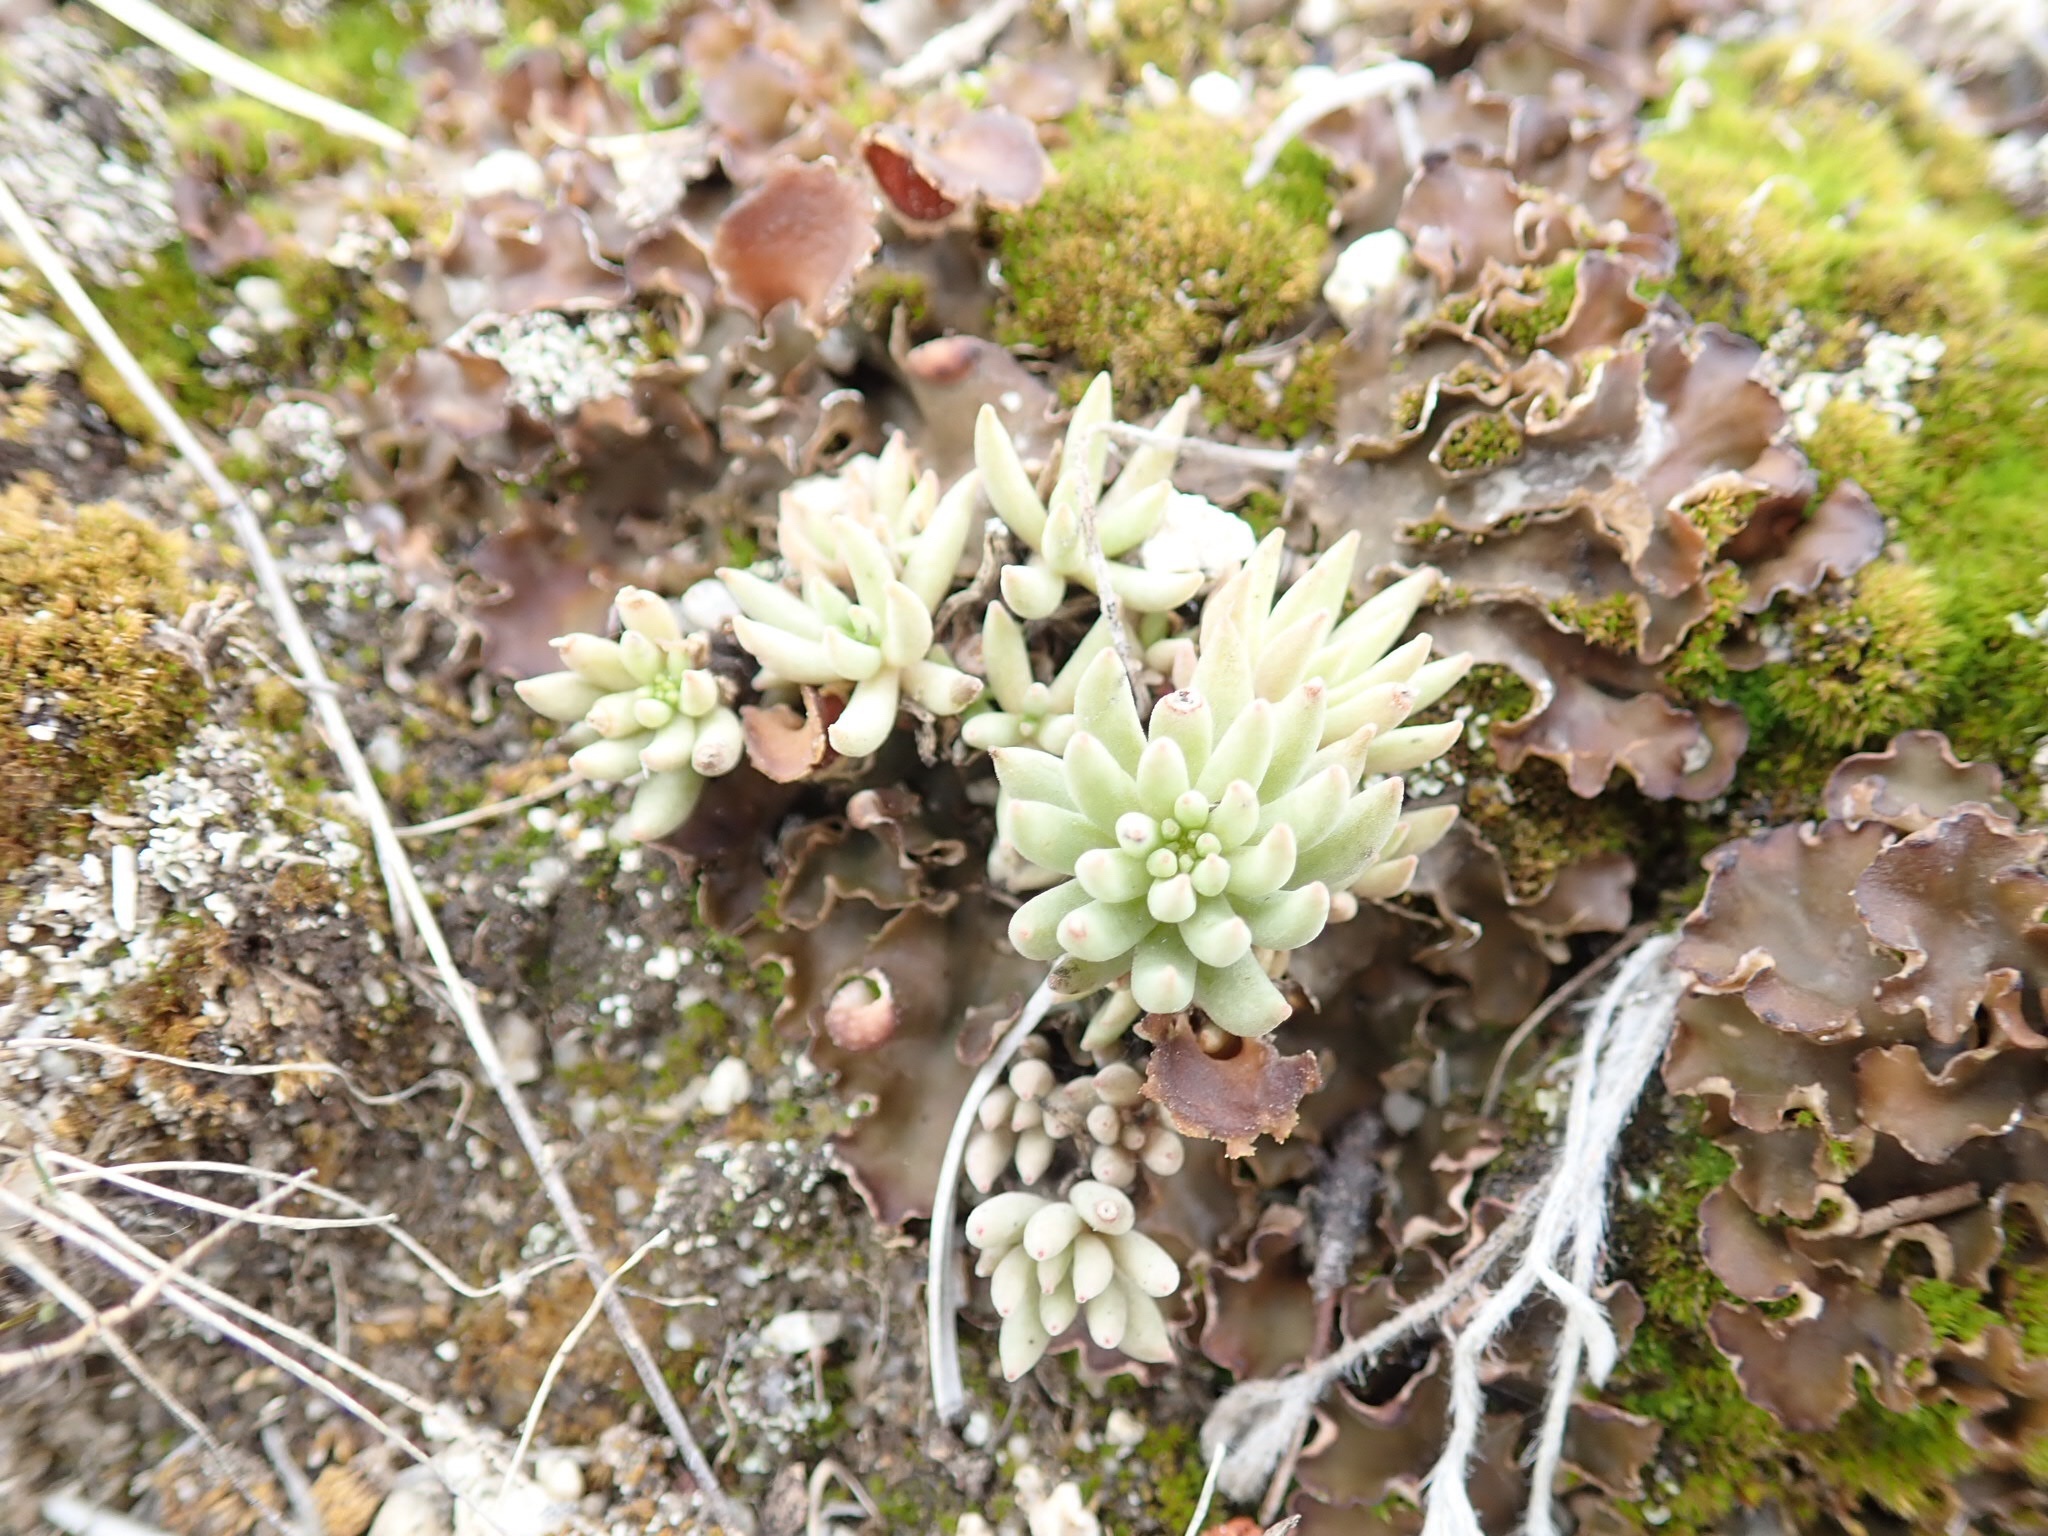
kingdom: Plantae
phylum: Tracheophyta
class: Magnoliopsida
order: Saxifragales
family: Crassulaceae
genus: Sedum
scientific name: Sedum lanceolatum
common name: Common stonecrop
